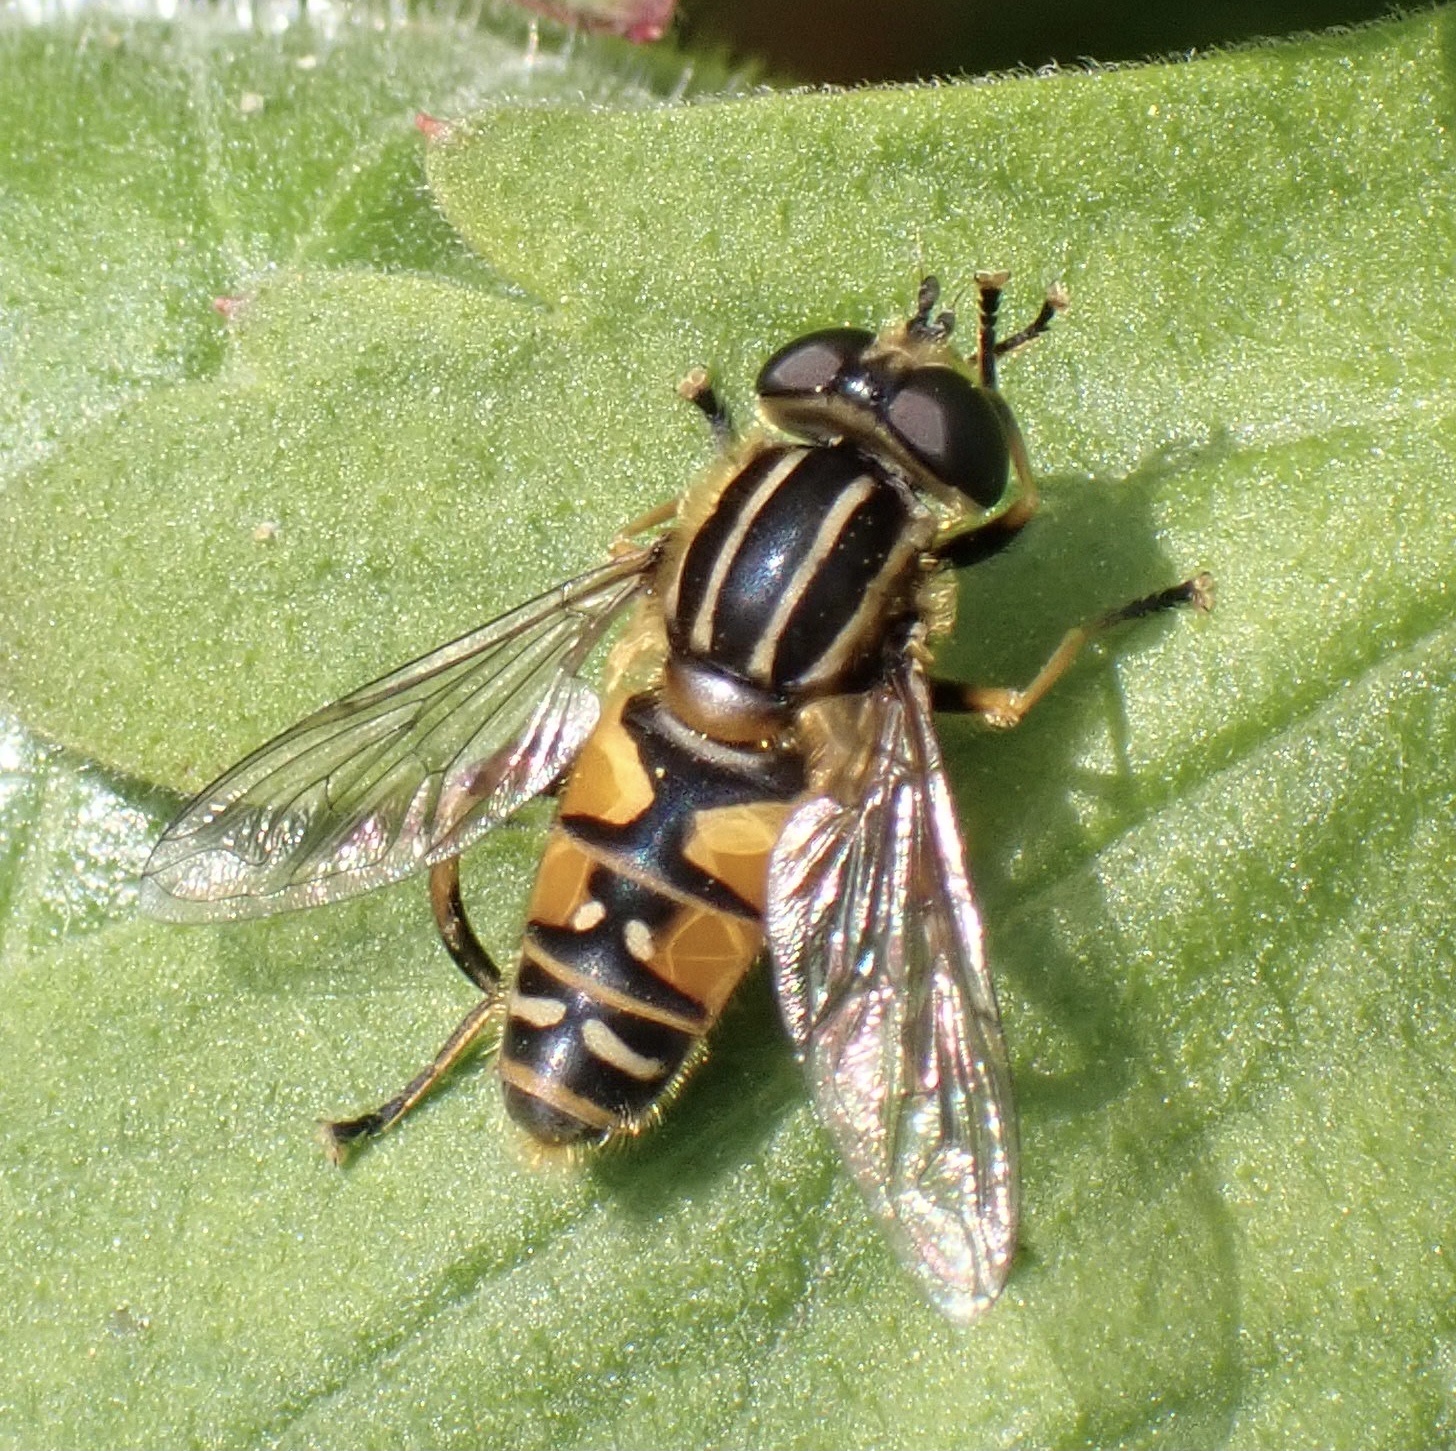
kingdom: Animalia
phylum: Arthropoda
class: Insecta
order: Diptera
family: Syrphidae
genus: Helophilus
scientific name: Helophilus pendulus
